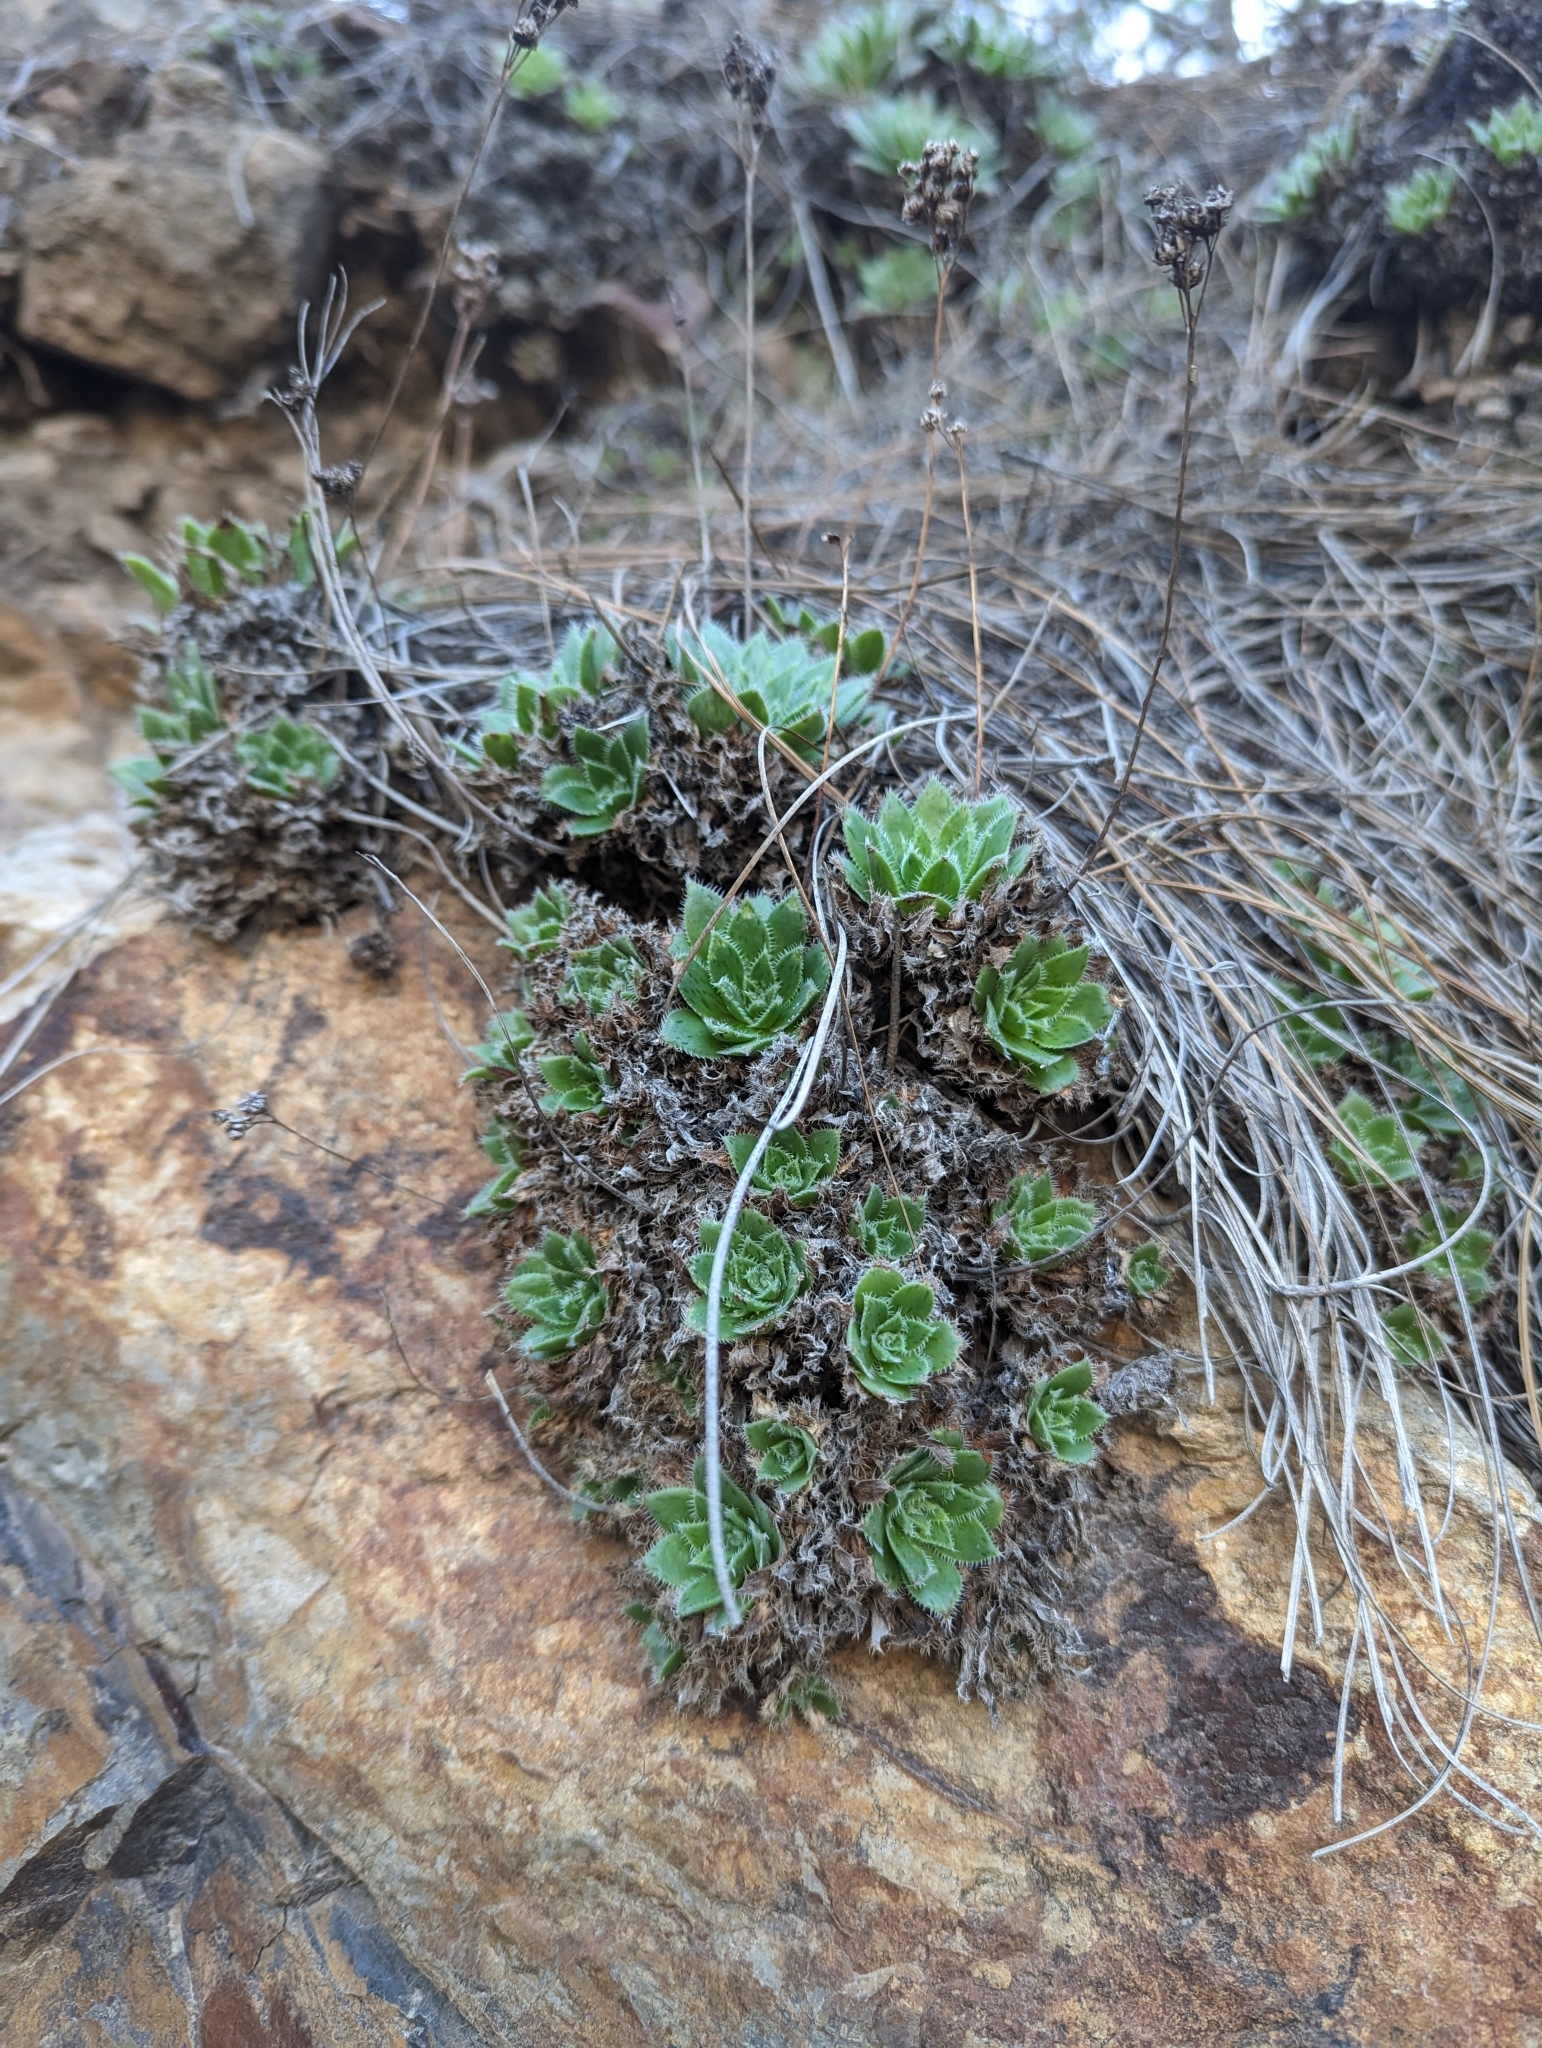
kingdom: Plantae
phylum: Tracheophyta
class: Magnoliopsida
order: Saxifragales
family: Crassulaceae
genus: Aeonium
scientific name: Aeonium simsii
